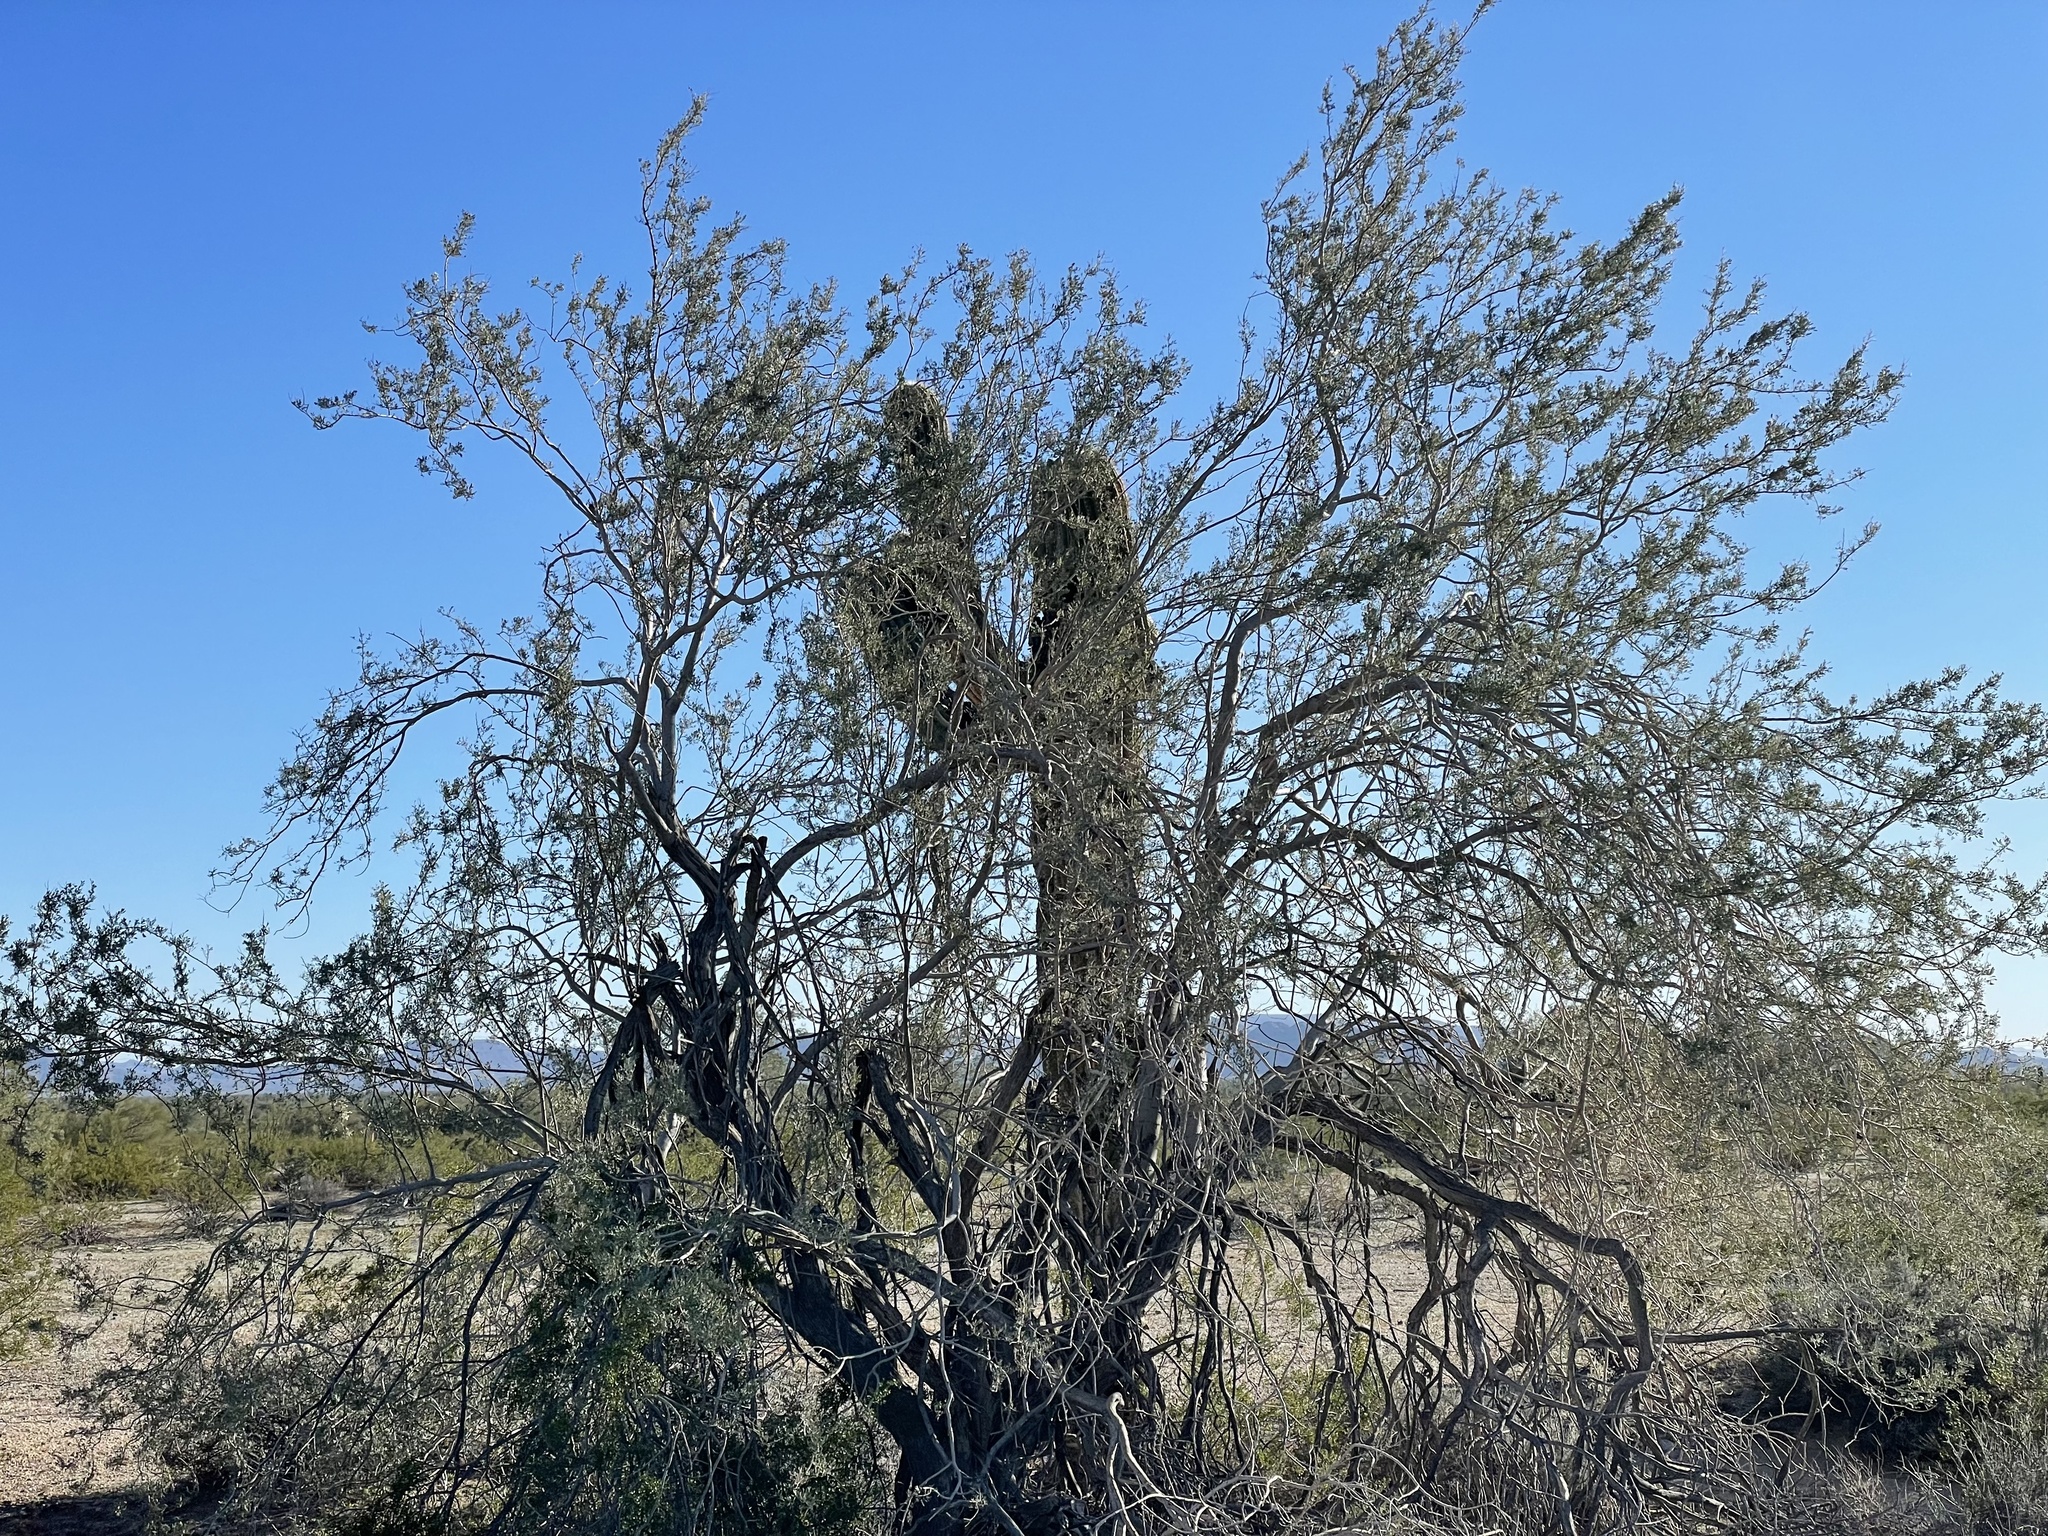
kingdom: Plantae
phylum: Tracheophyta
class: Magnoliopsida
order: Fabales
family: Fabaceae
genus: Olneya
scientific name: Olneya tesota
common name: Desert ironwood
